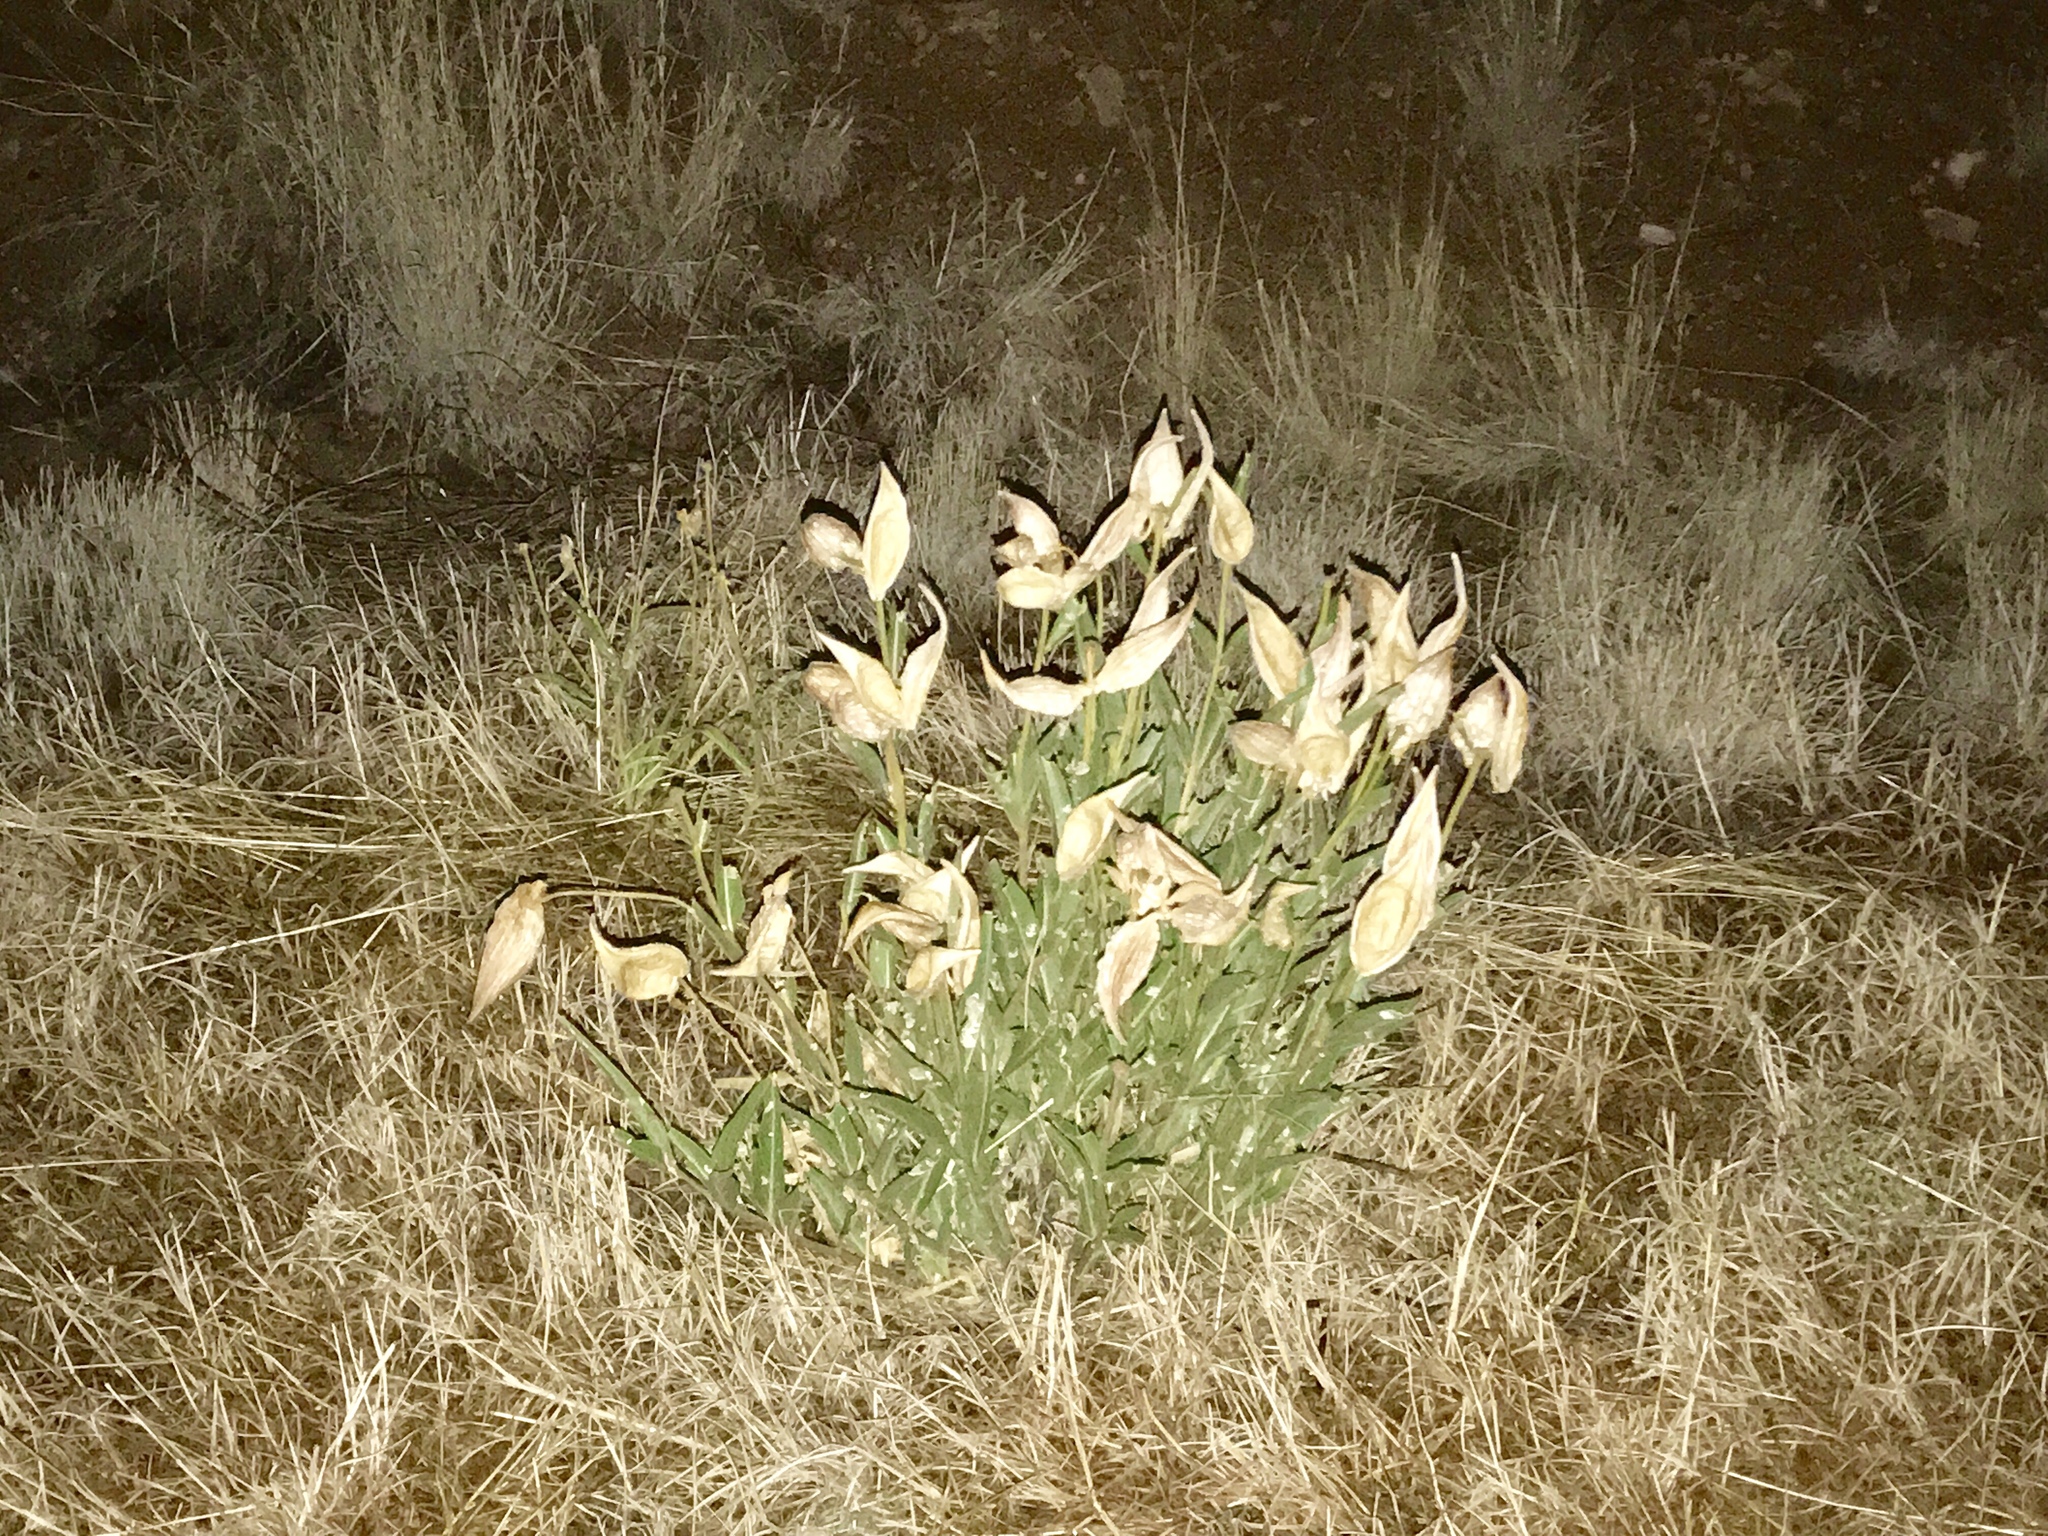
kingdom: Plantae
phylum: Tracheophyta
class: Magnoliopsida
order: Gentianales
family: Apocynaceae
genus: Asclepias
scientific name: Asclepias asperula
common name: Antelope horns
